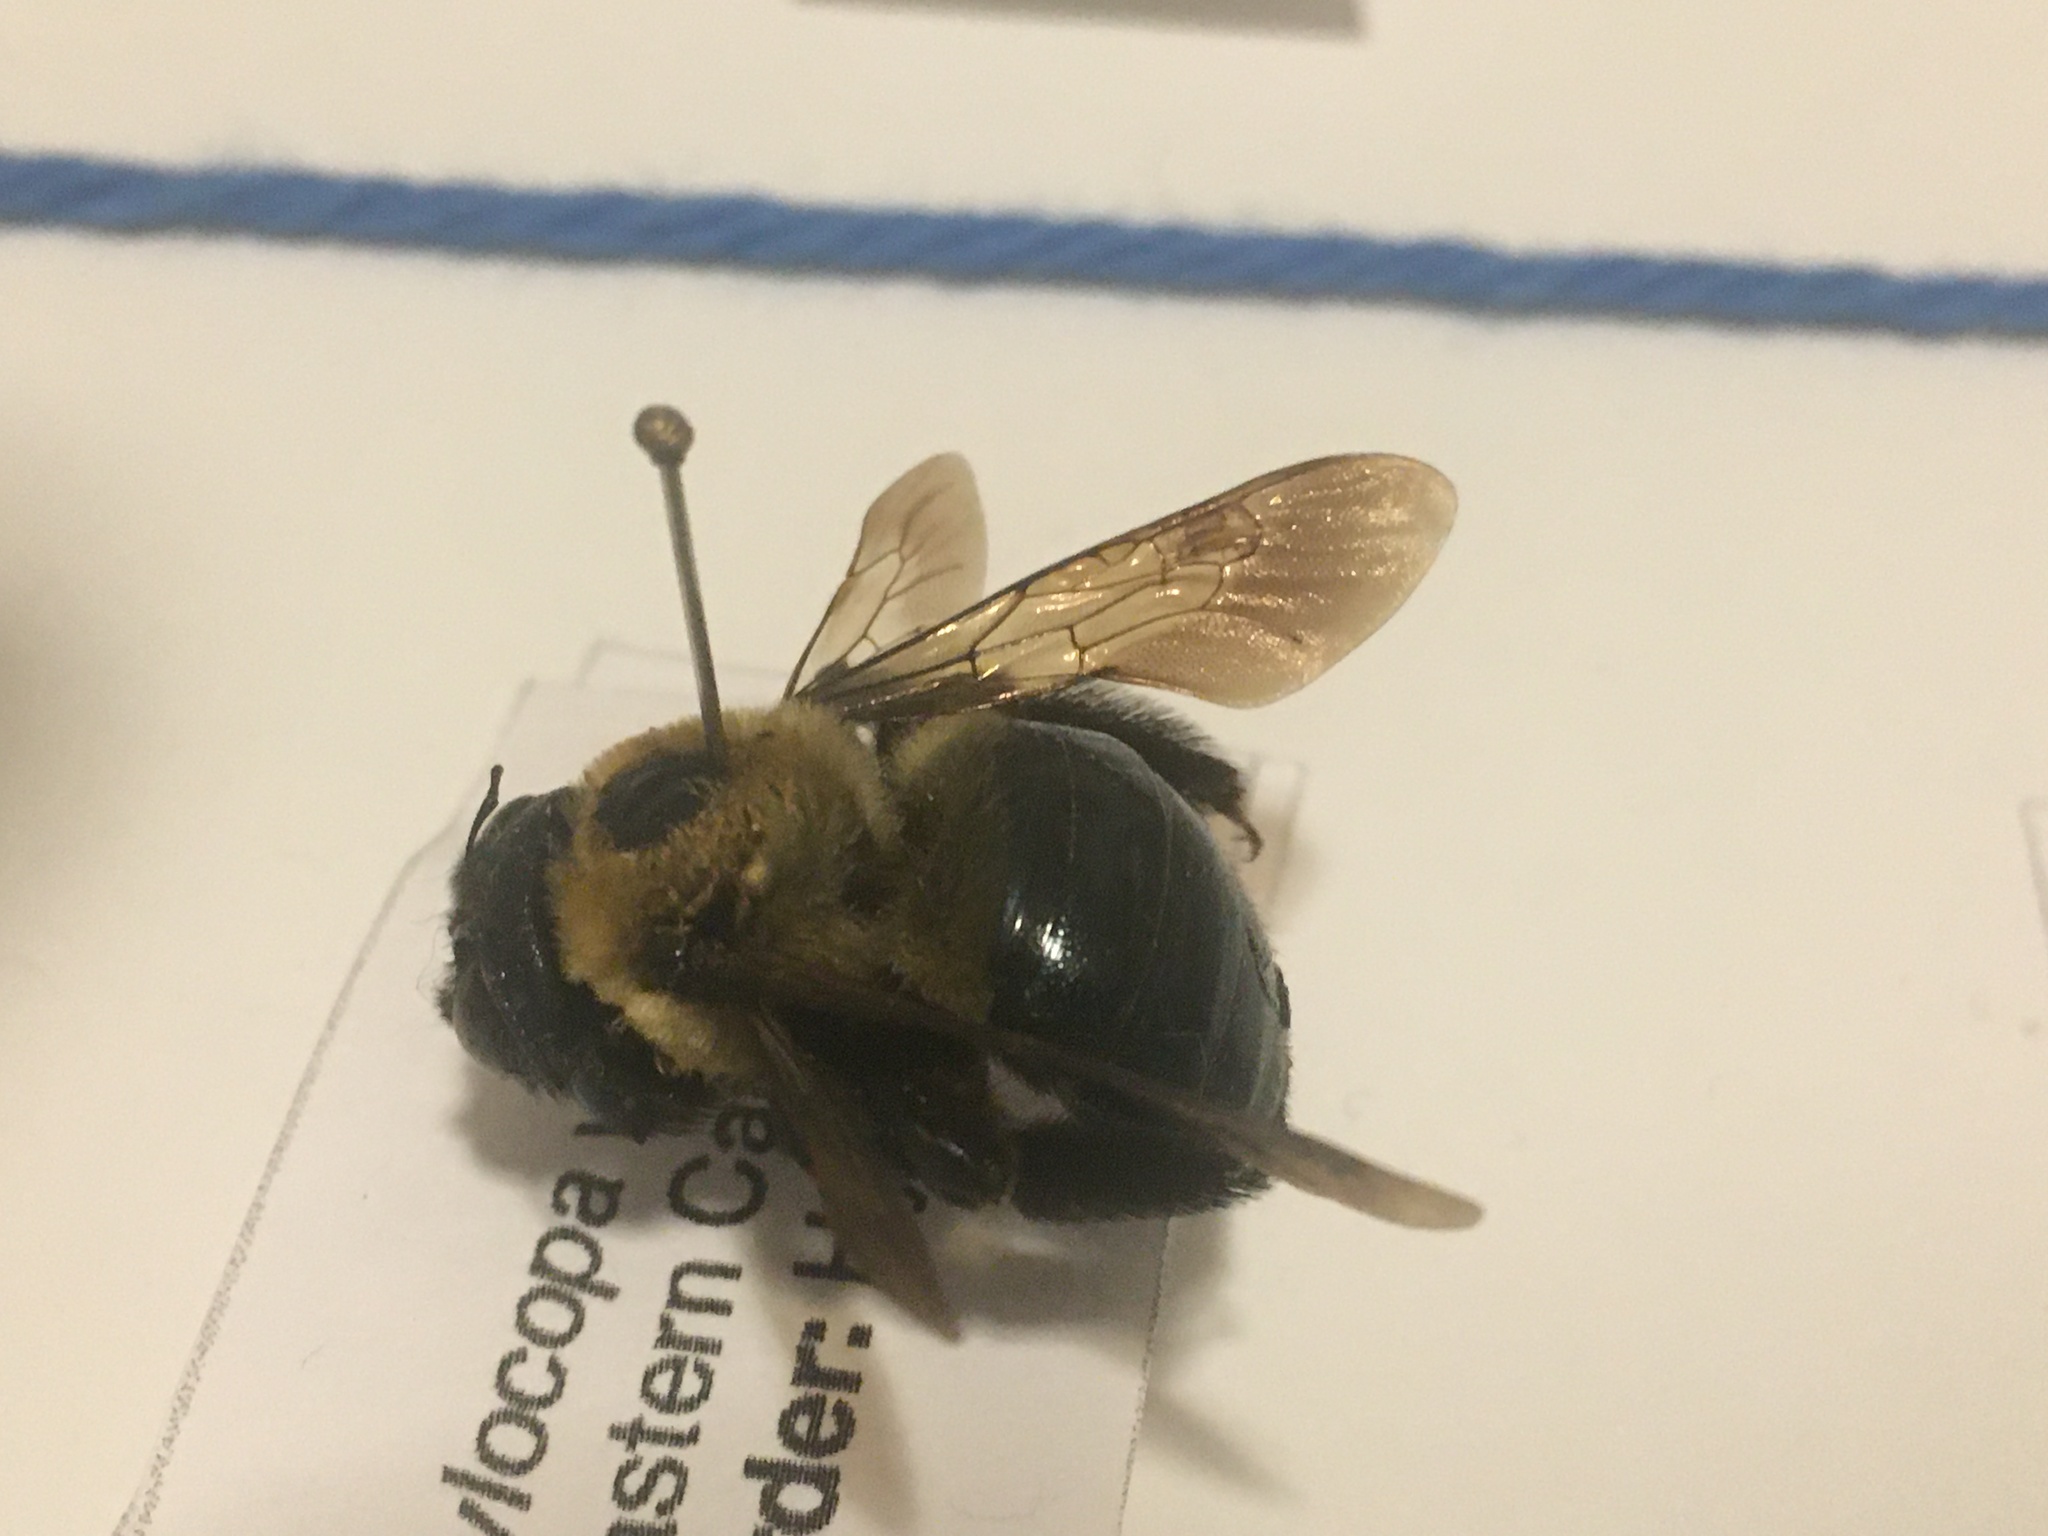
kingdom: Animalia
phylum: Arthropoda
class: Insecta
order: Hymenoptera
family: Apidae
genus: Xylocopa
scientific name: Xylocopa virginica
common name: Carpenter bee
